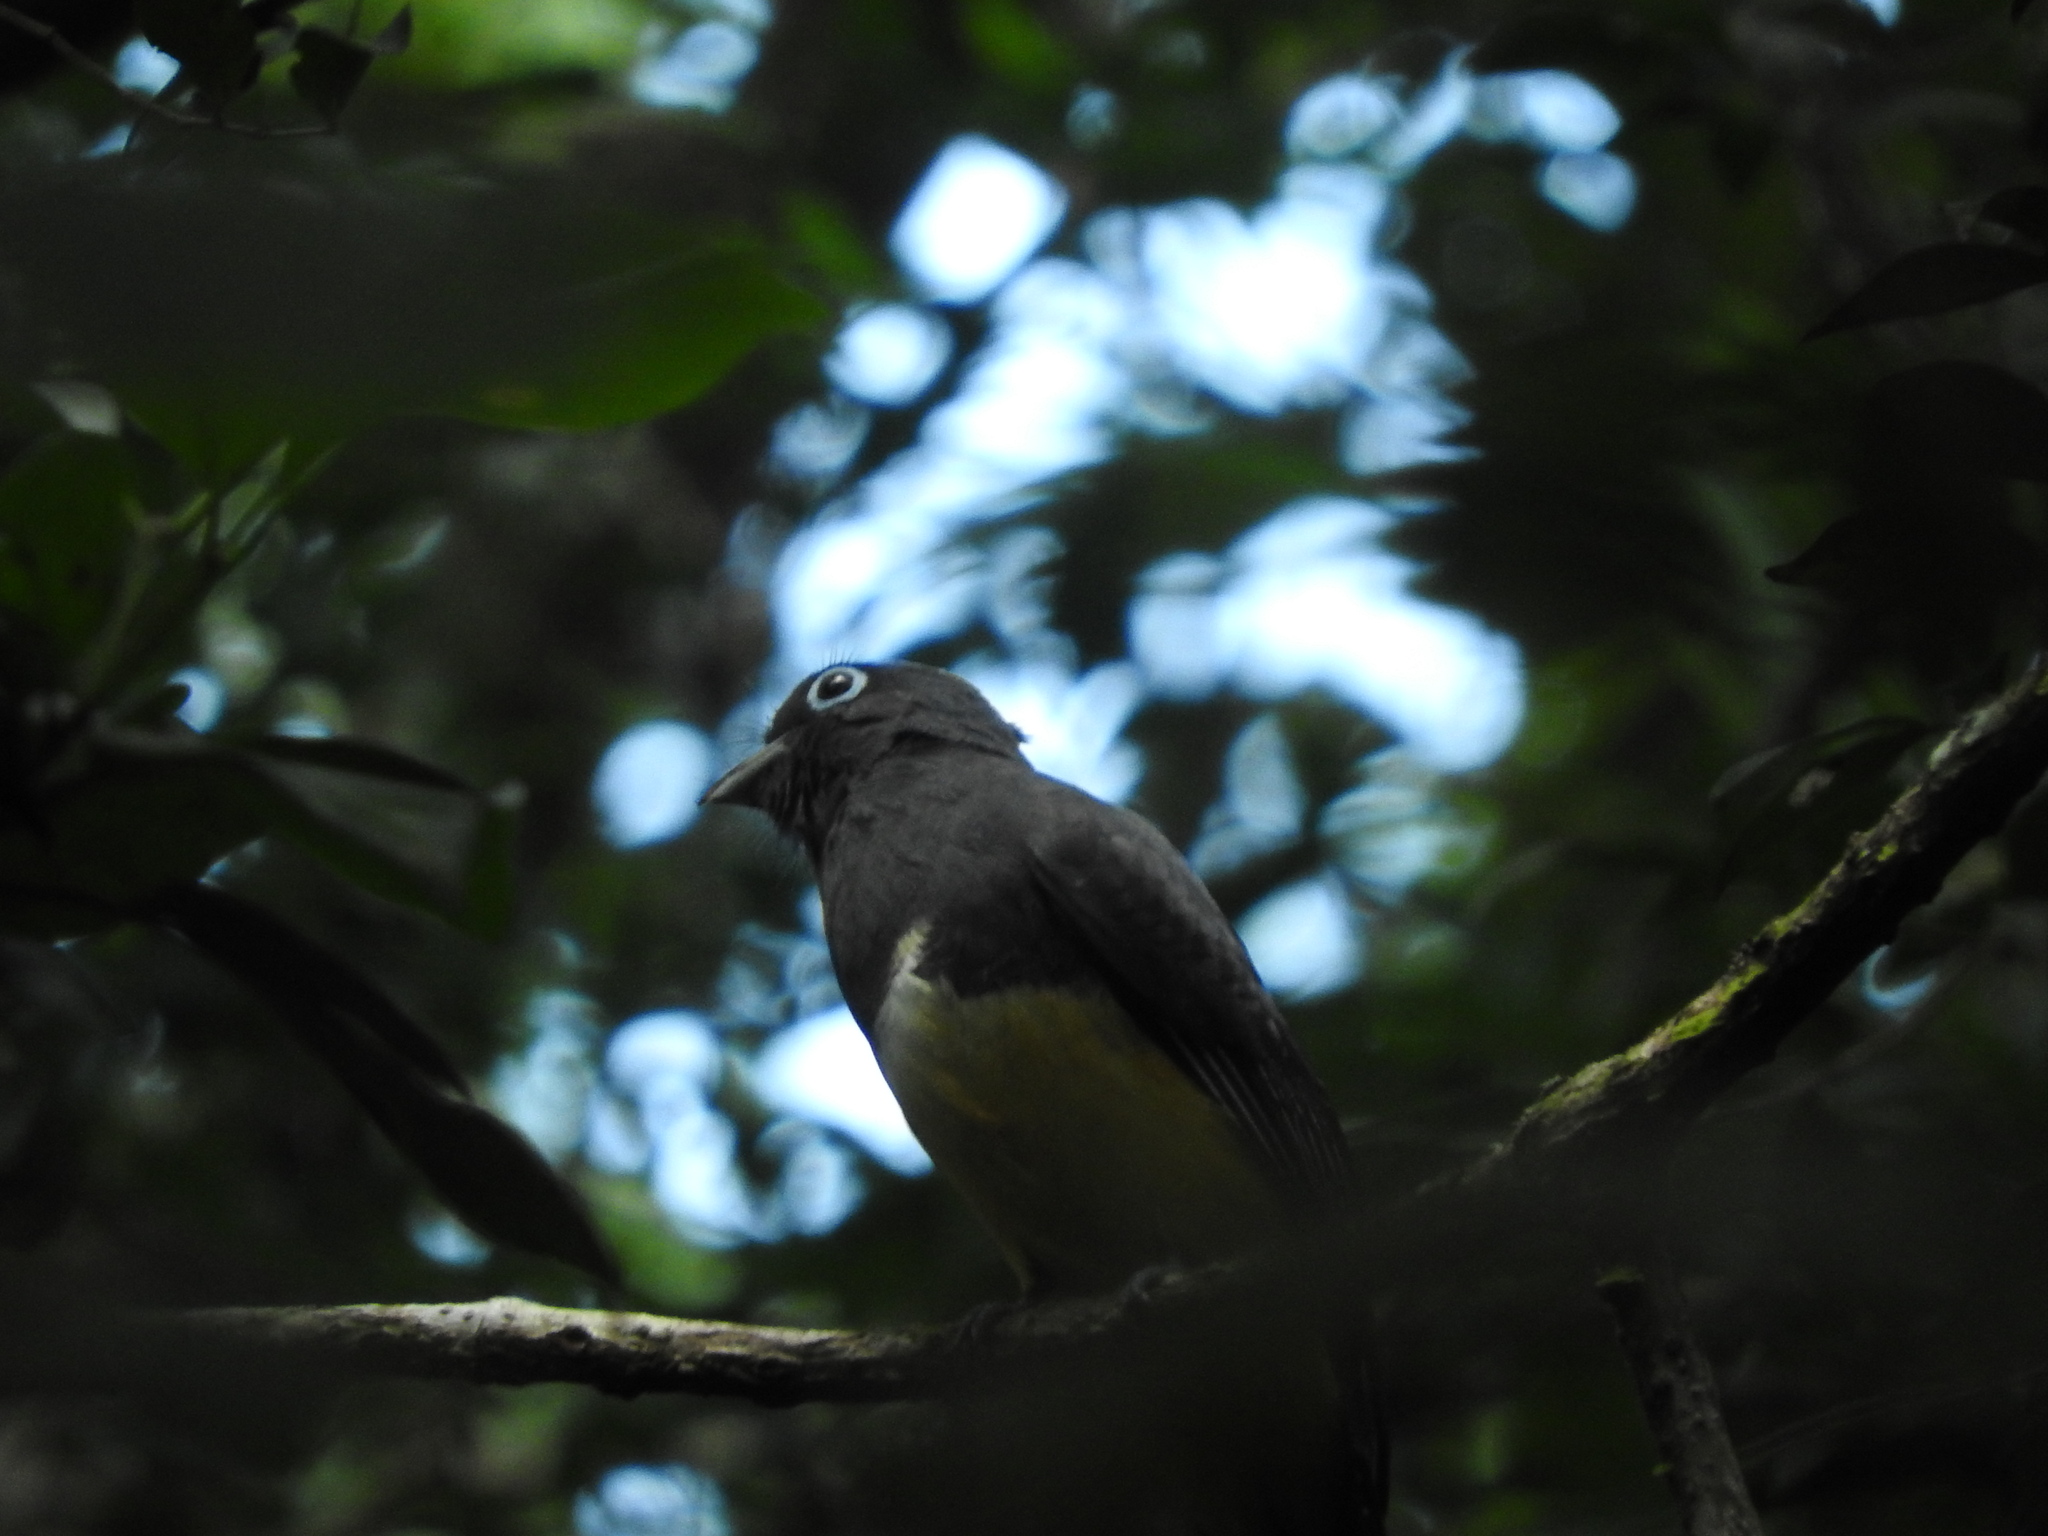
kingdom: Animalia
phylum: Chordata
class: Aves
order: Trogoniformes
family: Trogonidae
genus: Trogon
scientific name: Trogon melanocephalus
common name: Black-headed trogon
